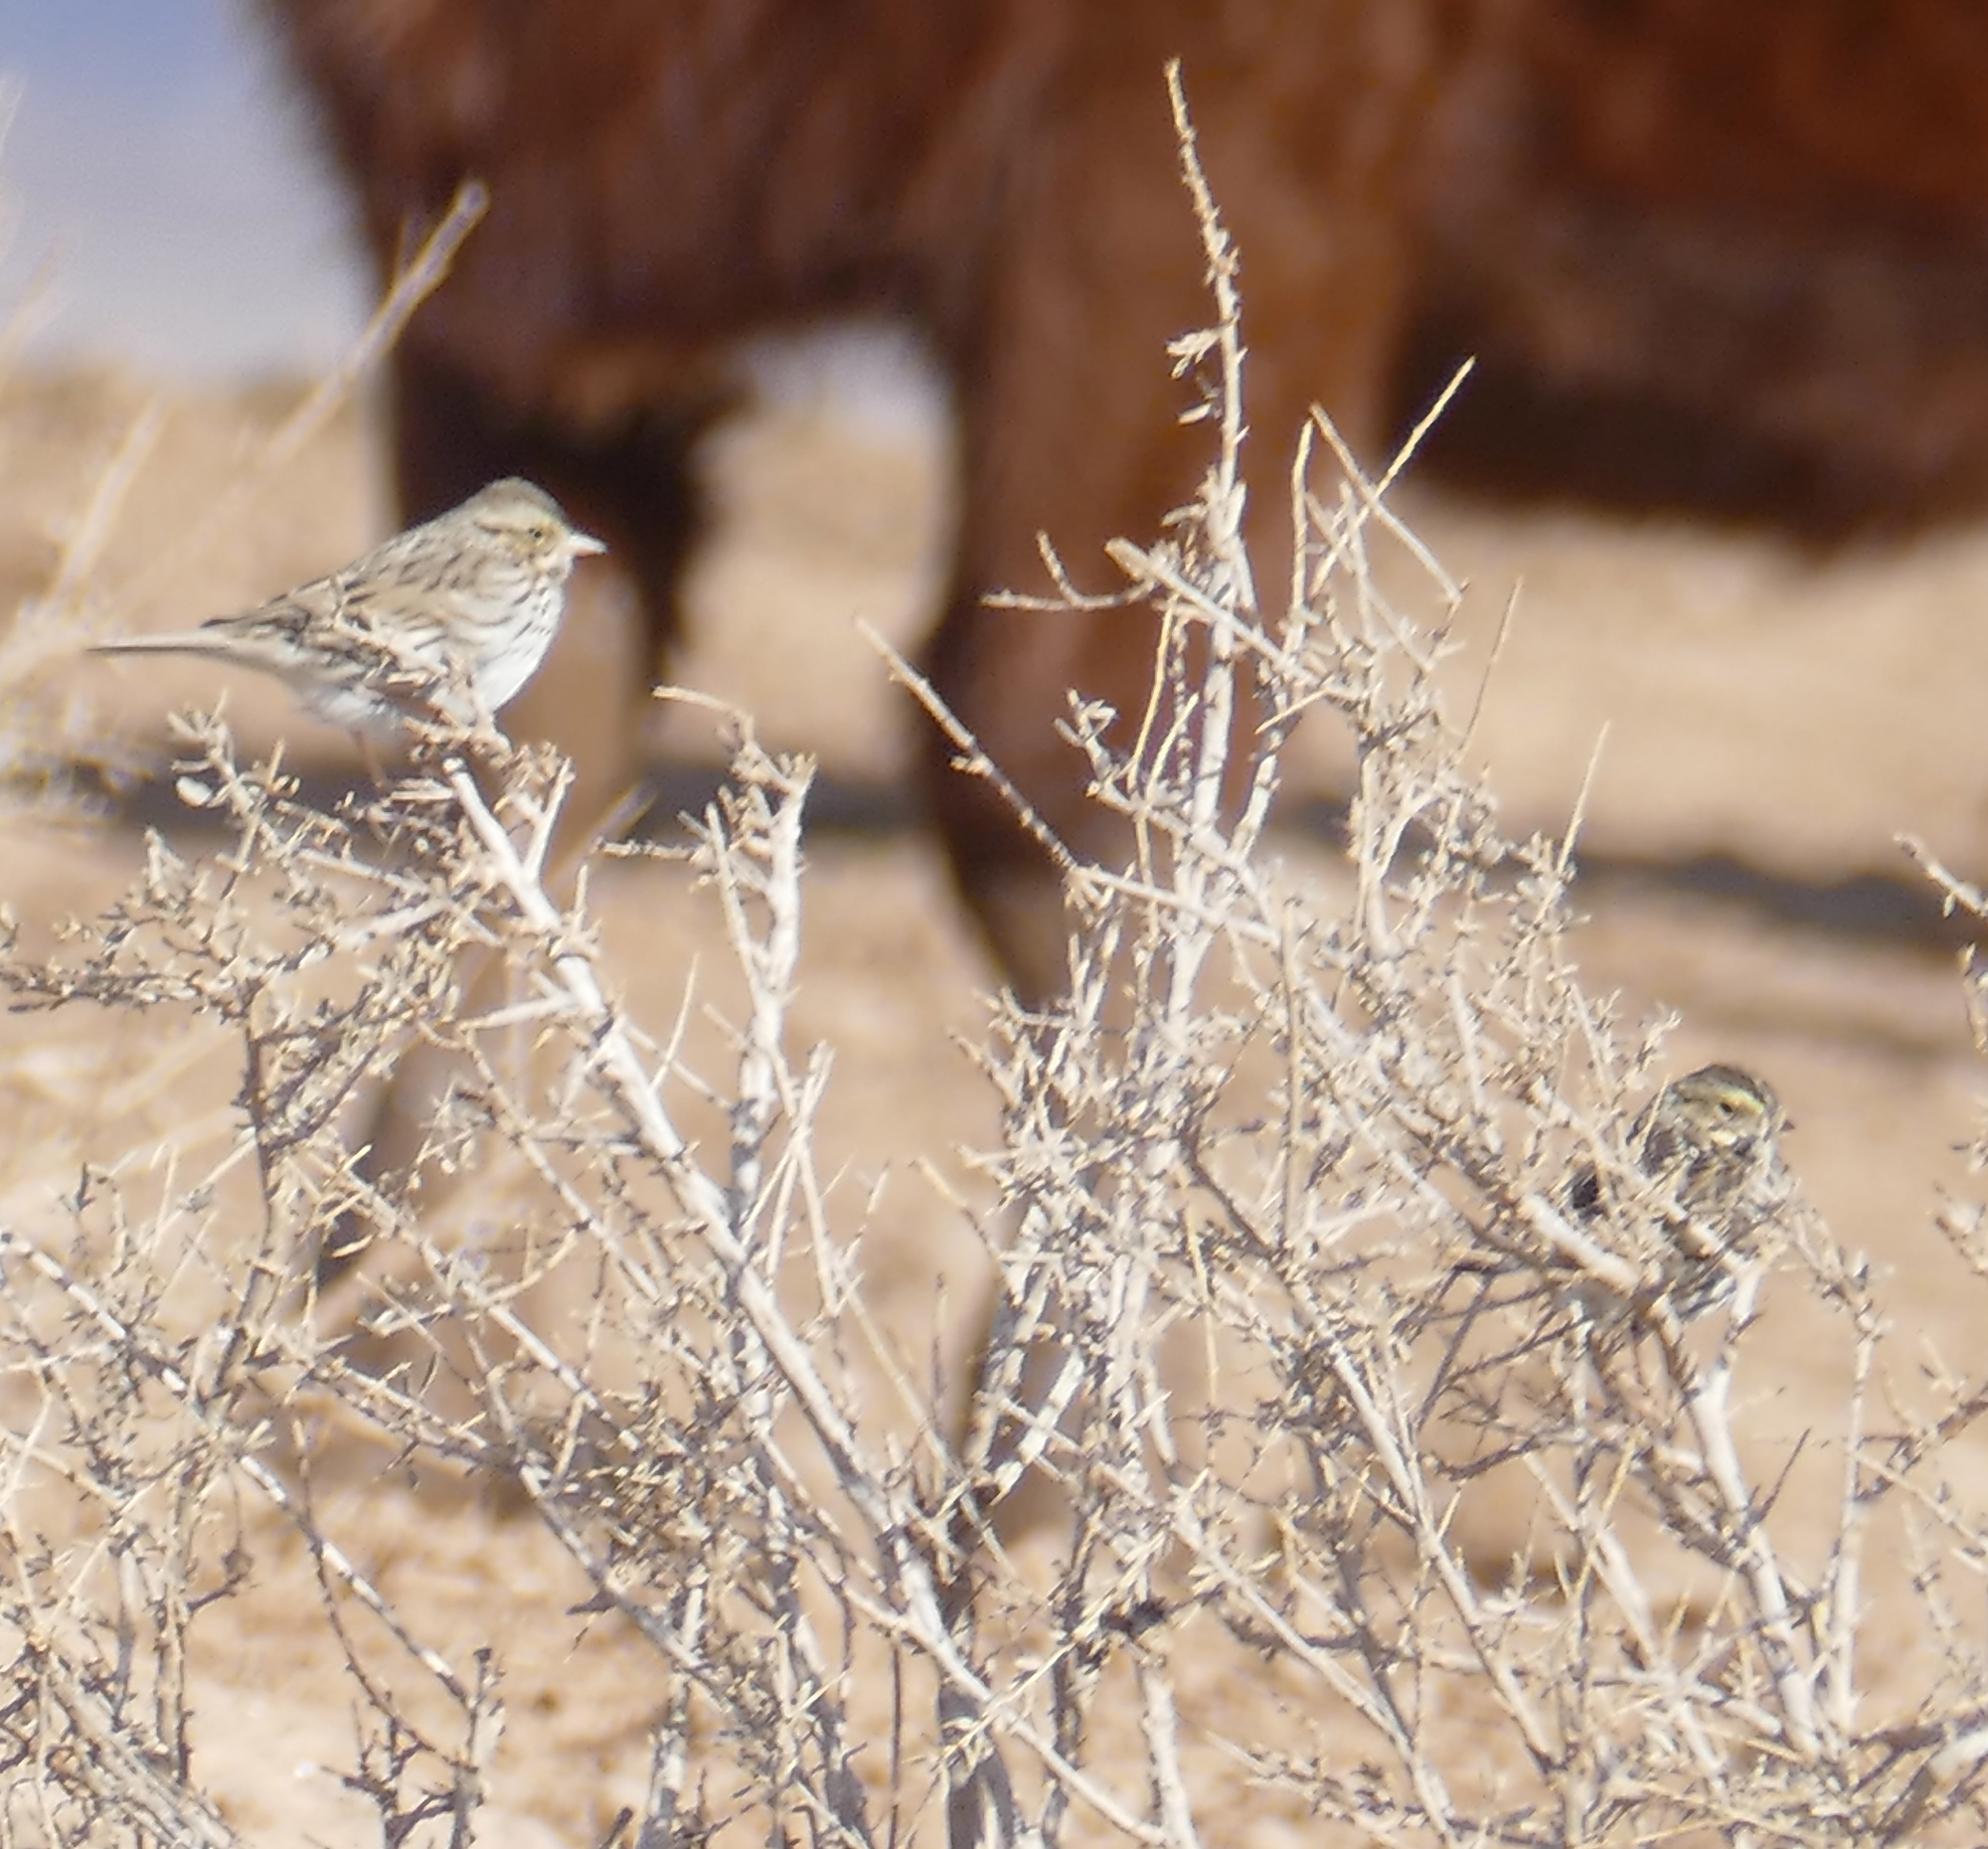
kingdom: Animalia
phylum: Chordata
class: Aves
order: Passeriformes
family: Passerellidae
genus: Passerculus
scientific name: Passerculus sandwichensis
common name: Savannah sparrow
